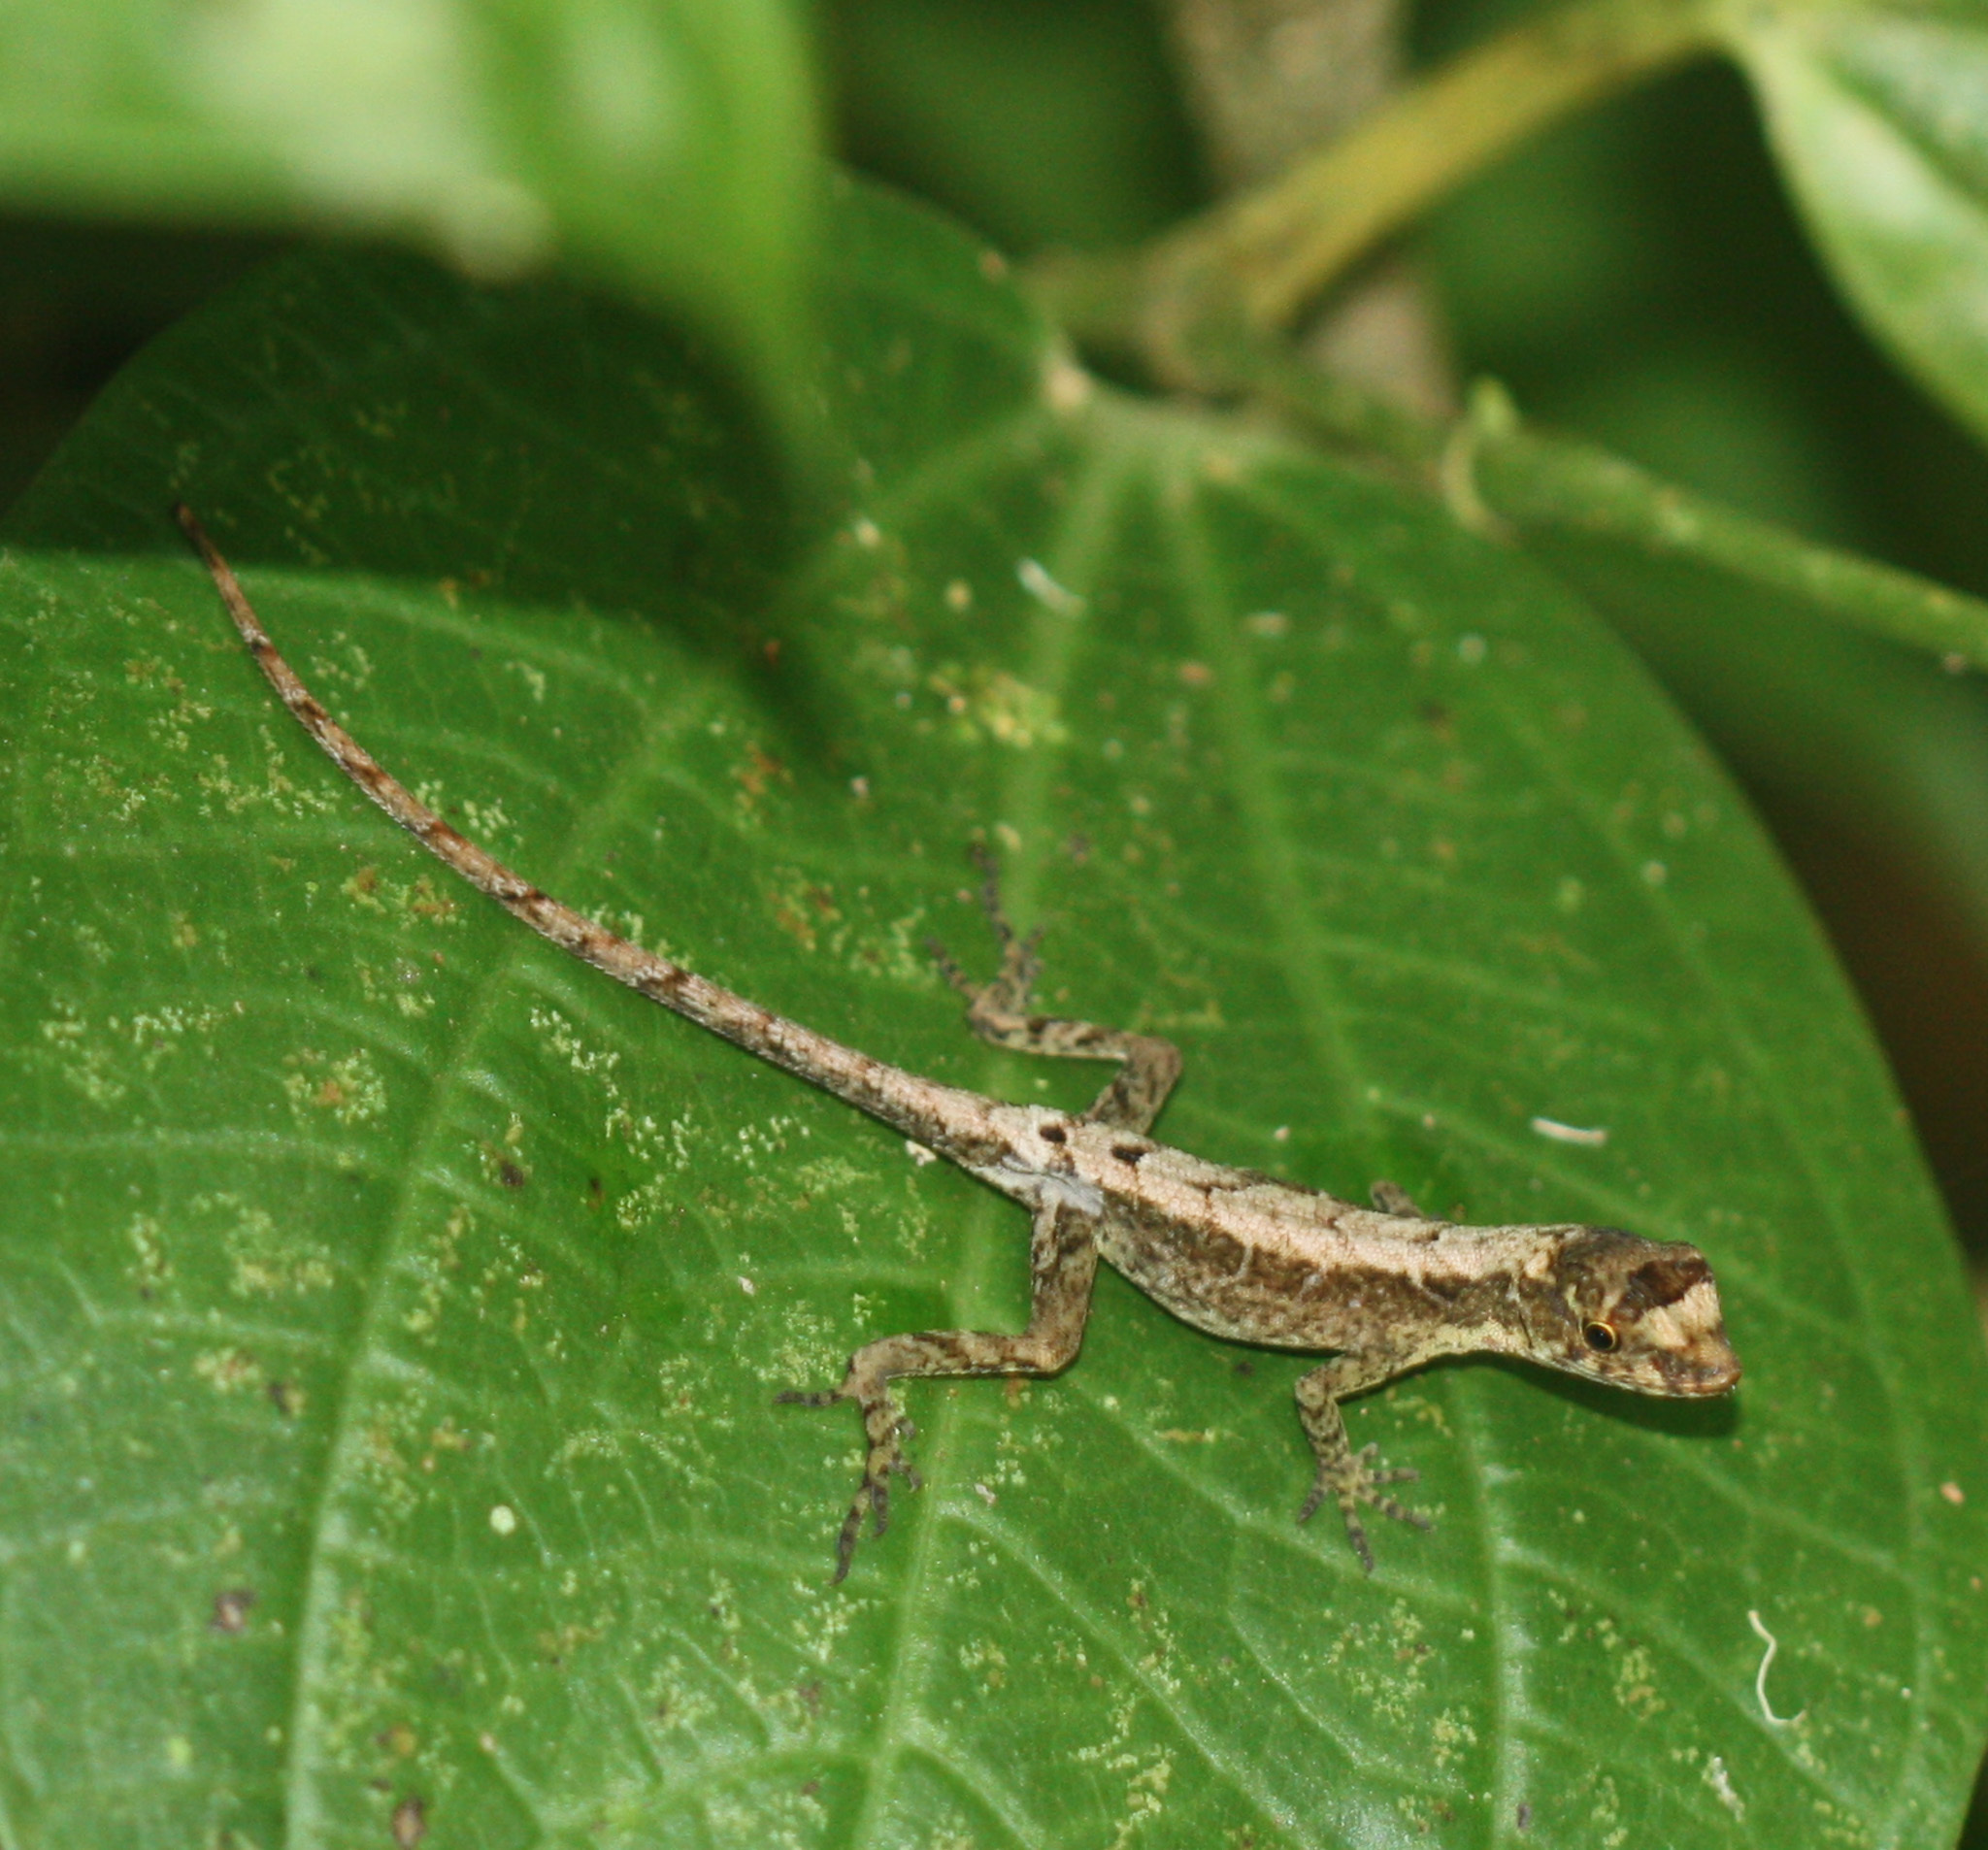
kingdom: Animalia
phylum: Chordata
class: Squamata
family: Dactyloidae
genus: Anolis
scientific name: Anolis humilis
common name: Humble anole
